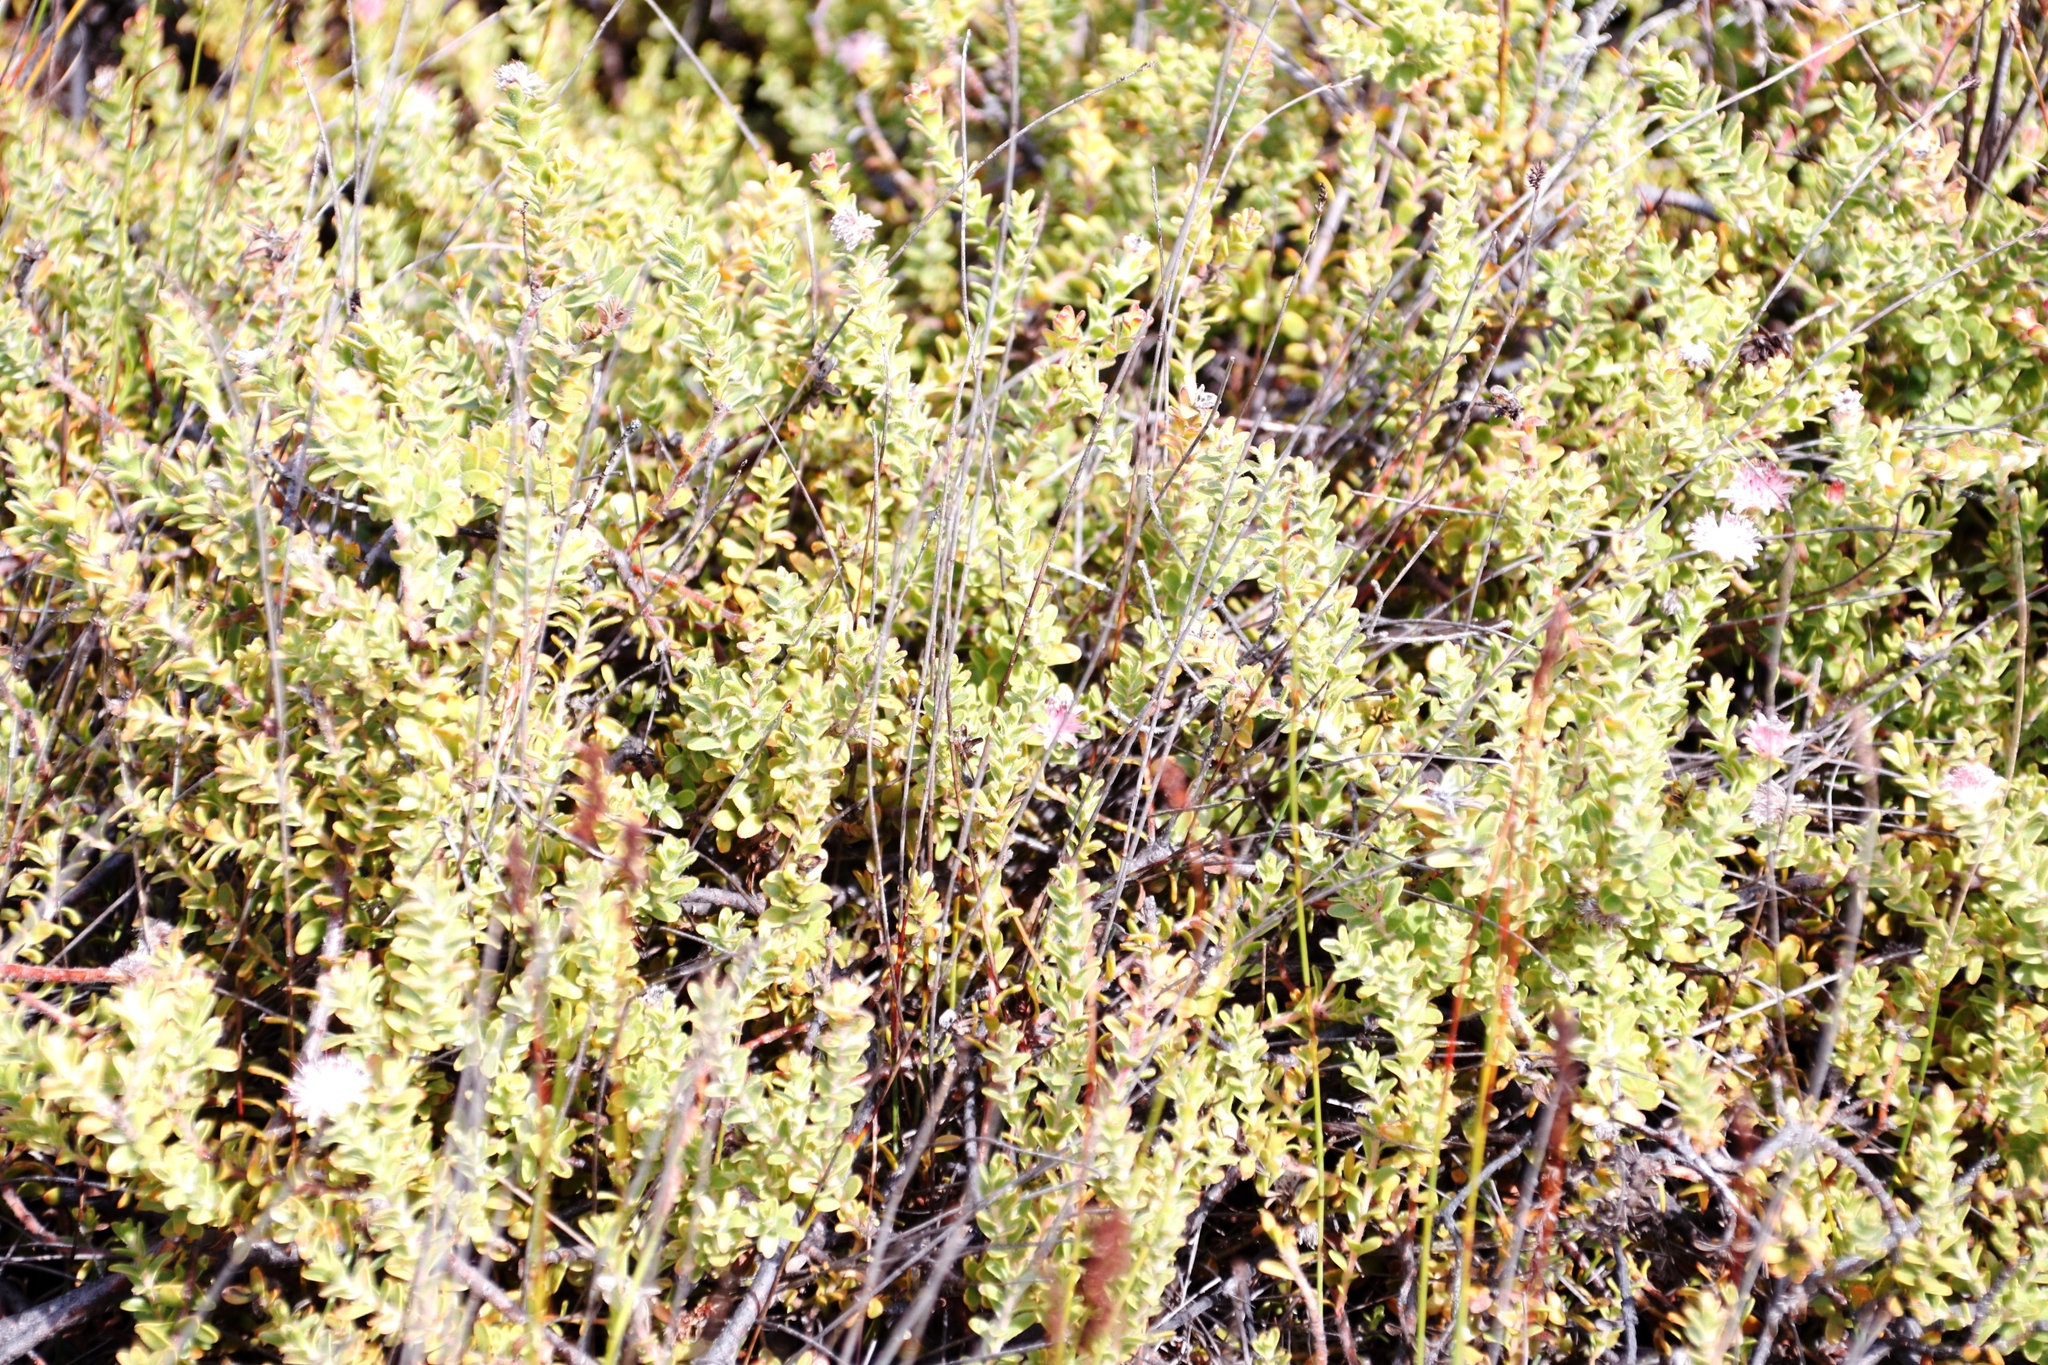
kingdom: Plantae
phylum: Tracheophyta
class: Magnoliopsida
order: Proteales
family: Proteaceae
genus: Diastella
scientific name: Diastella divaricata
